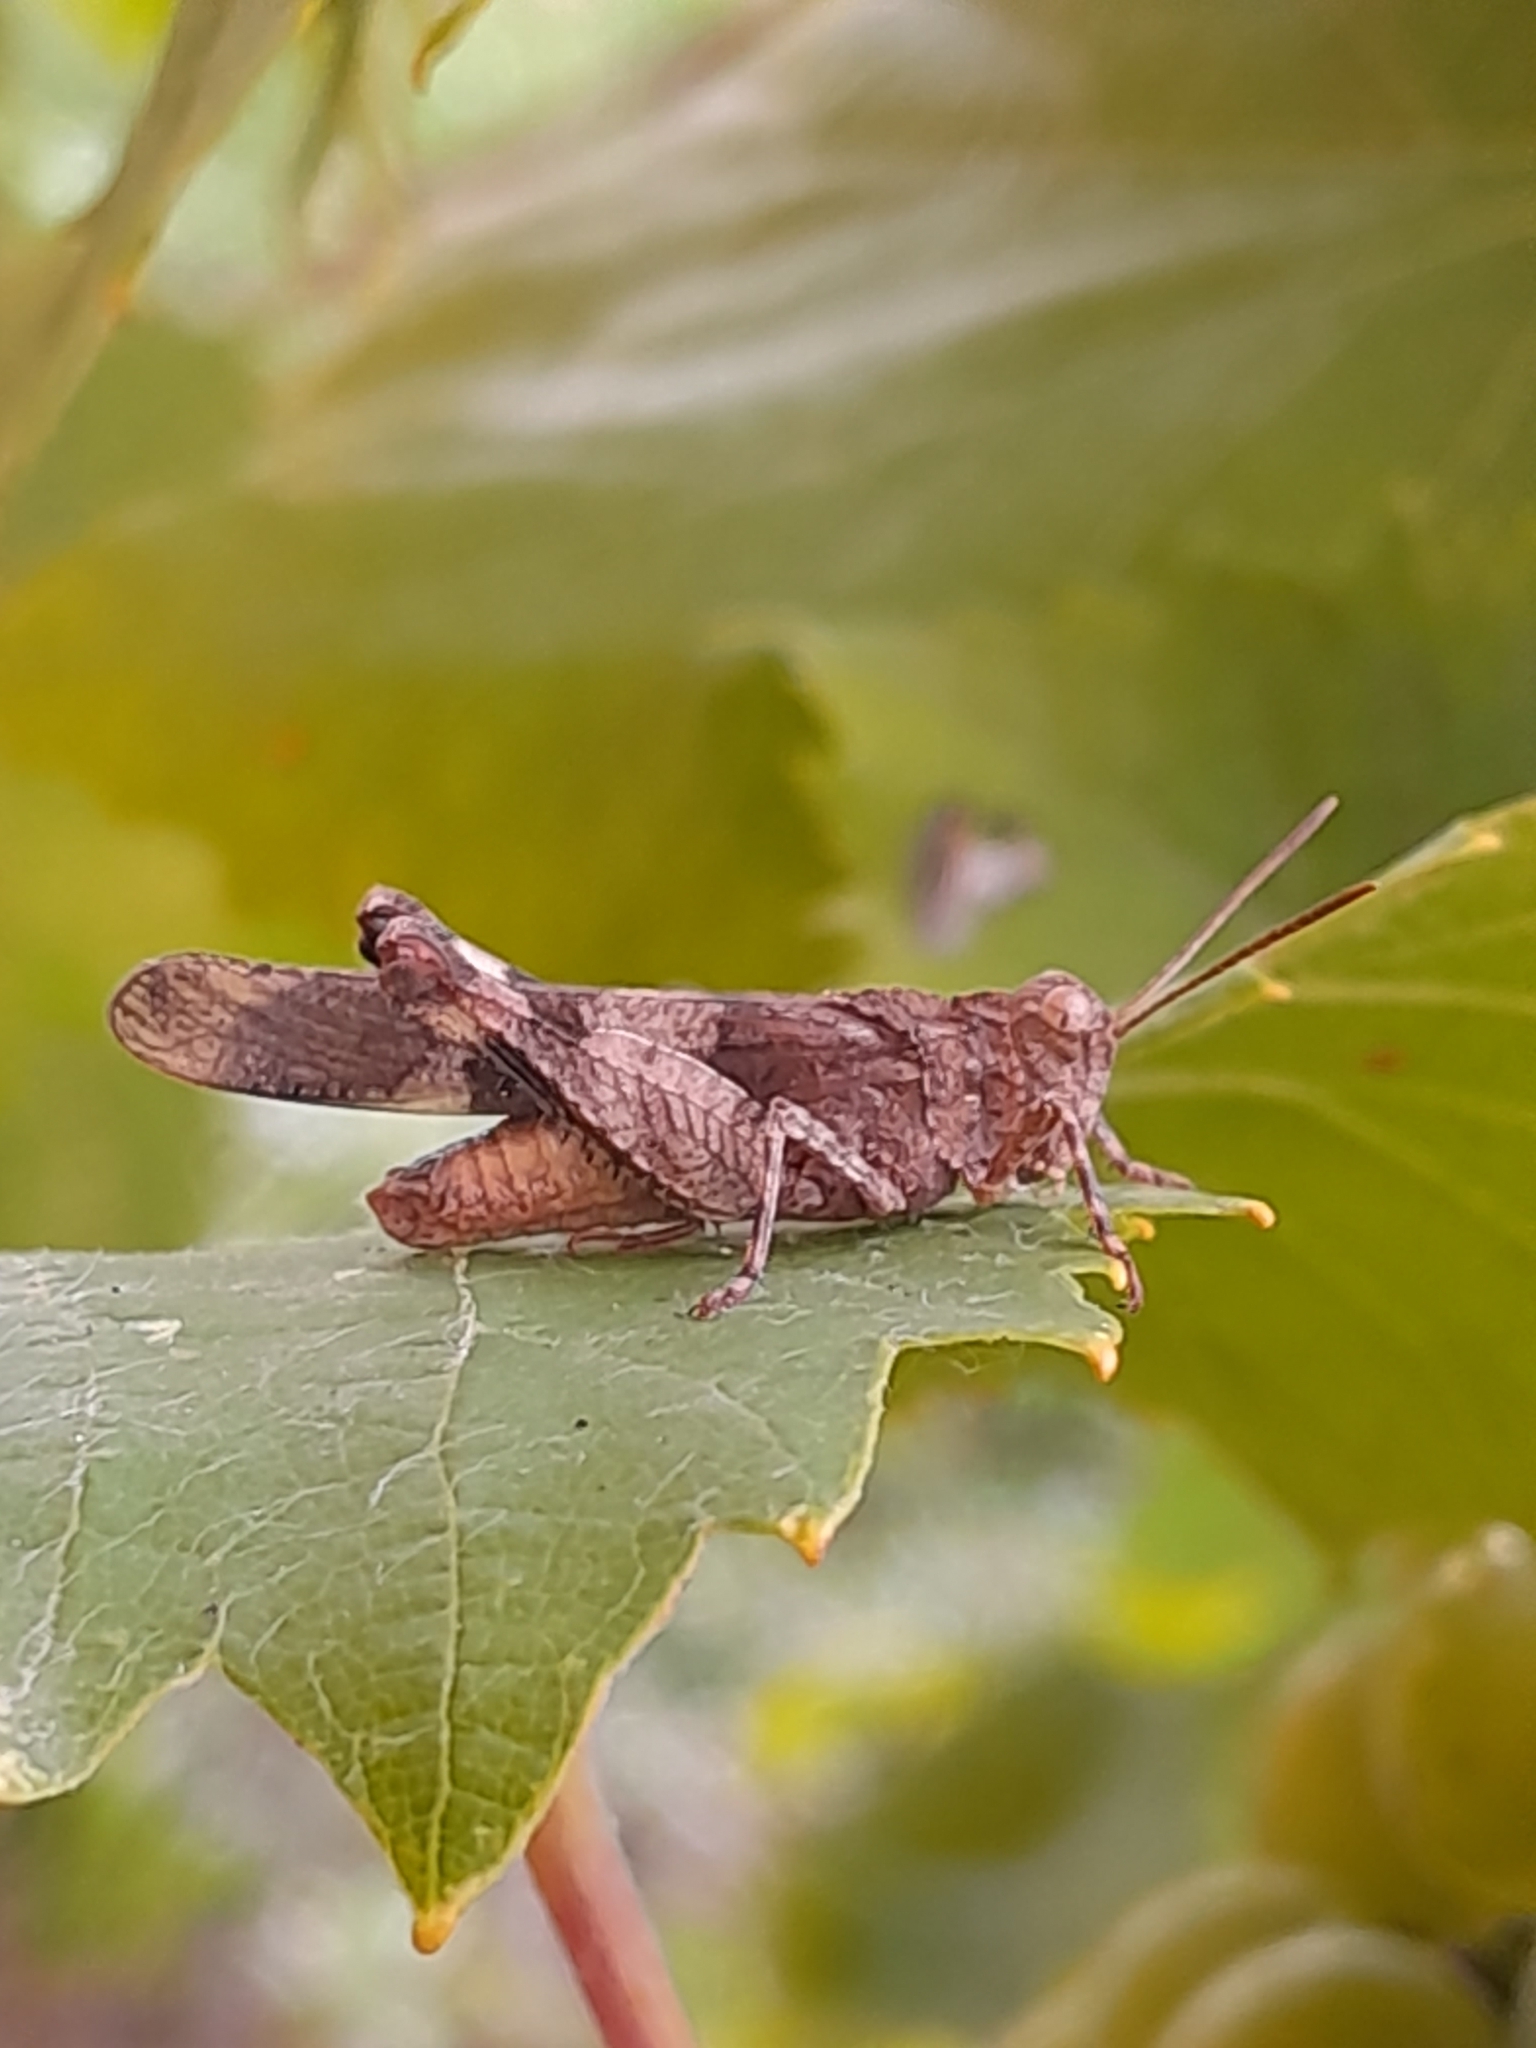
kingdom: Animalia
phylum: Arthropoda
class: Insecta
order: Orthoptera
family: Acrididae
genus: Oedipoda
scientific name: Oedipoda caerulescens
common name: Blue-winged grasshopper
